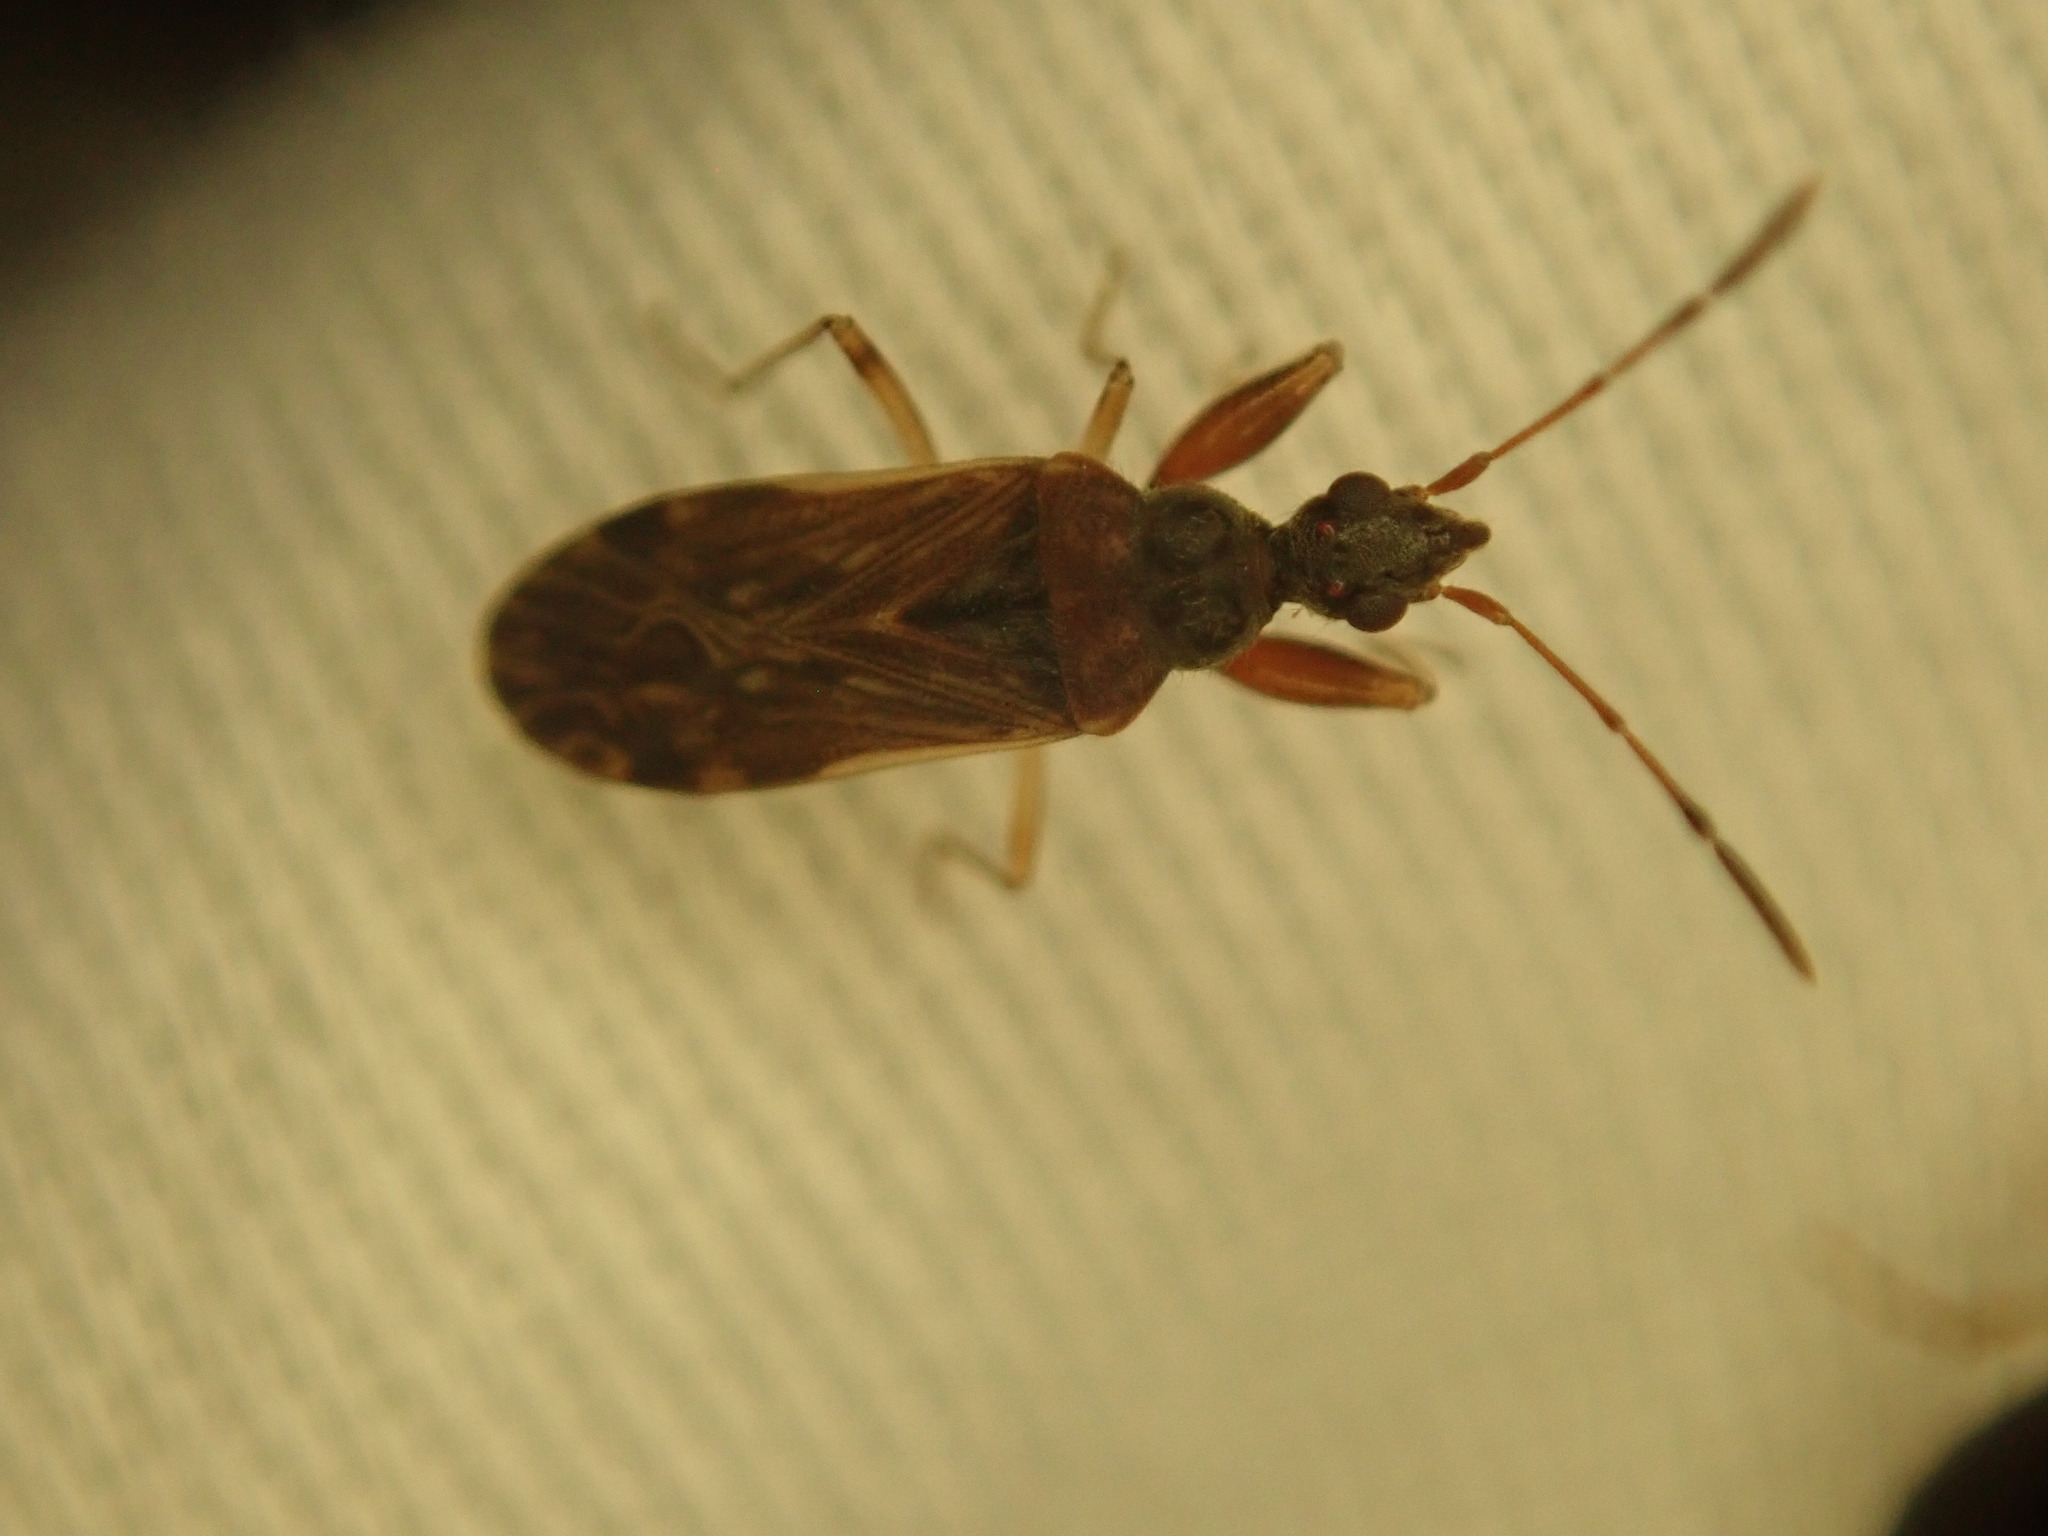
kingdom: Animalia
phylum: Arthropoda
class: Insecta
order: Hemiptera
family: Rhyparochromidae
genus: Heraeus
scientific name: Heraeus plebejus
